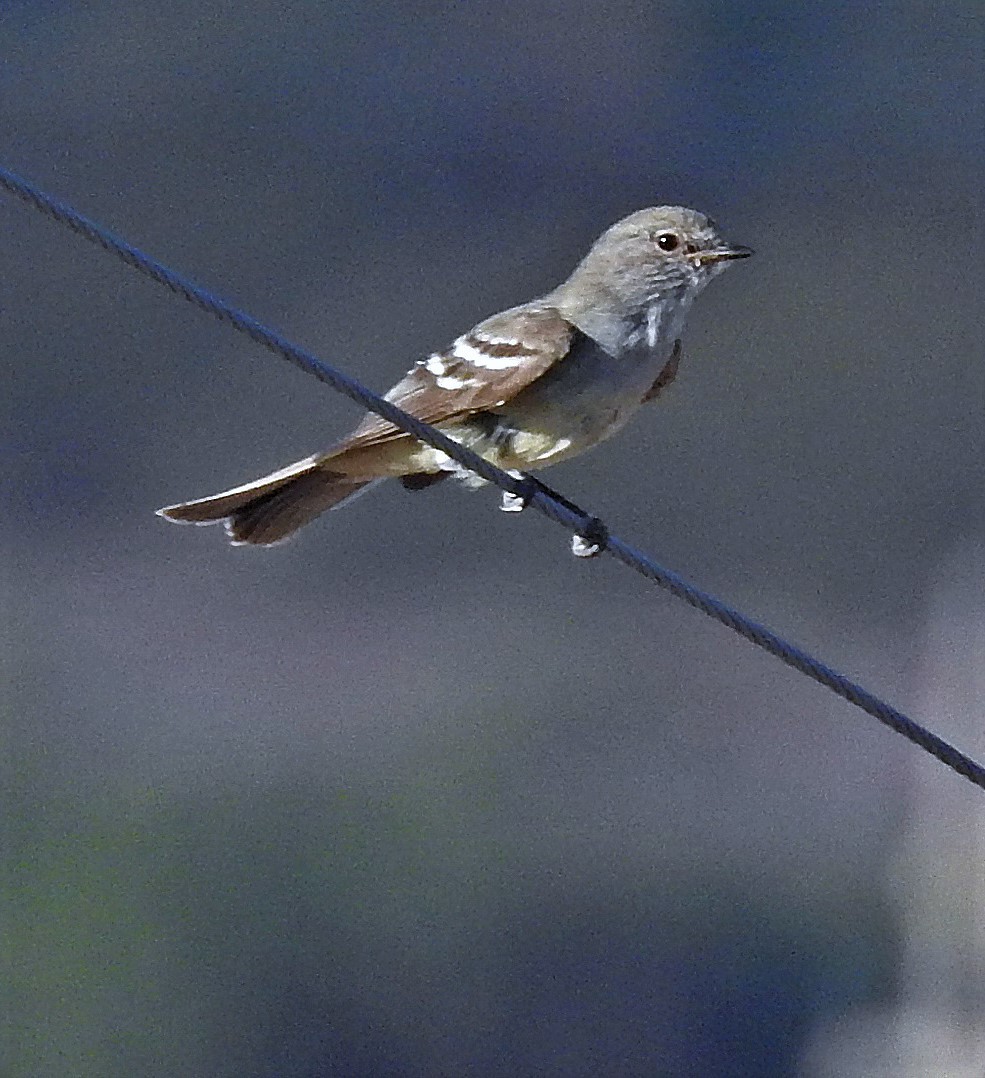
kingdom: Animalia
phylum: Chordata
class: Aves
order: Passeriformes
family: Tyrannidae
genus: Sublegatus
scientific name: Sublegatus modestus
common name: Southern scrub flycatcher
